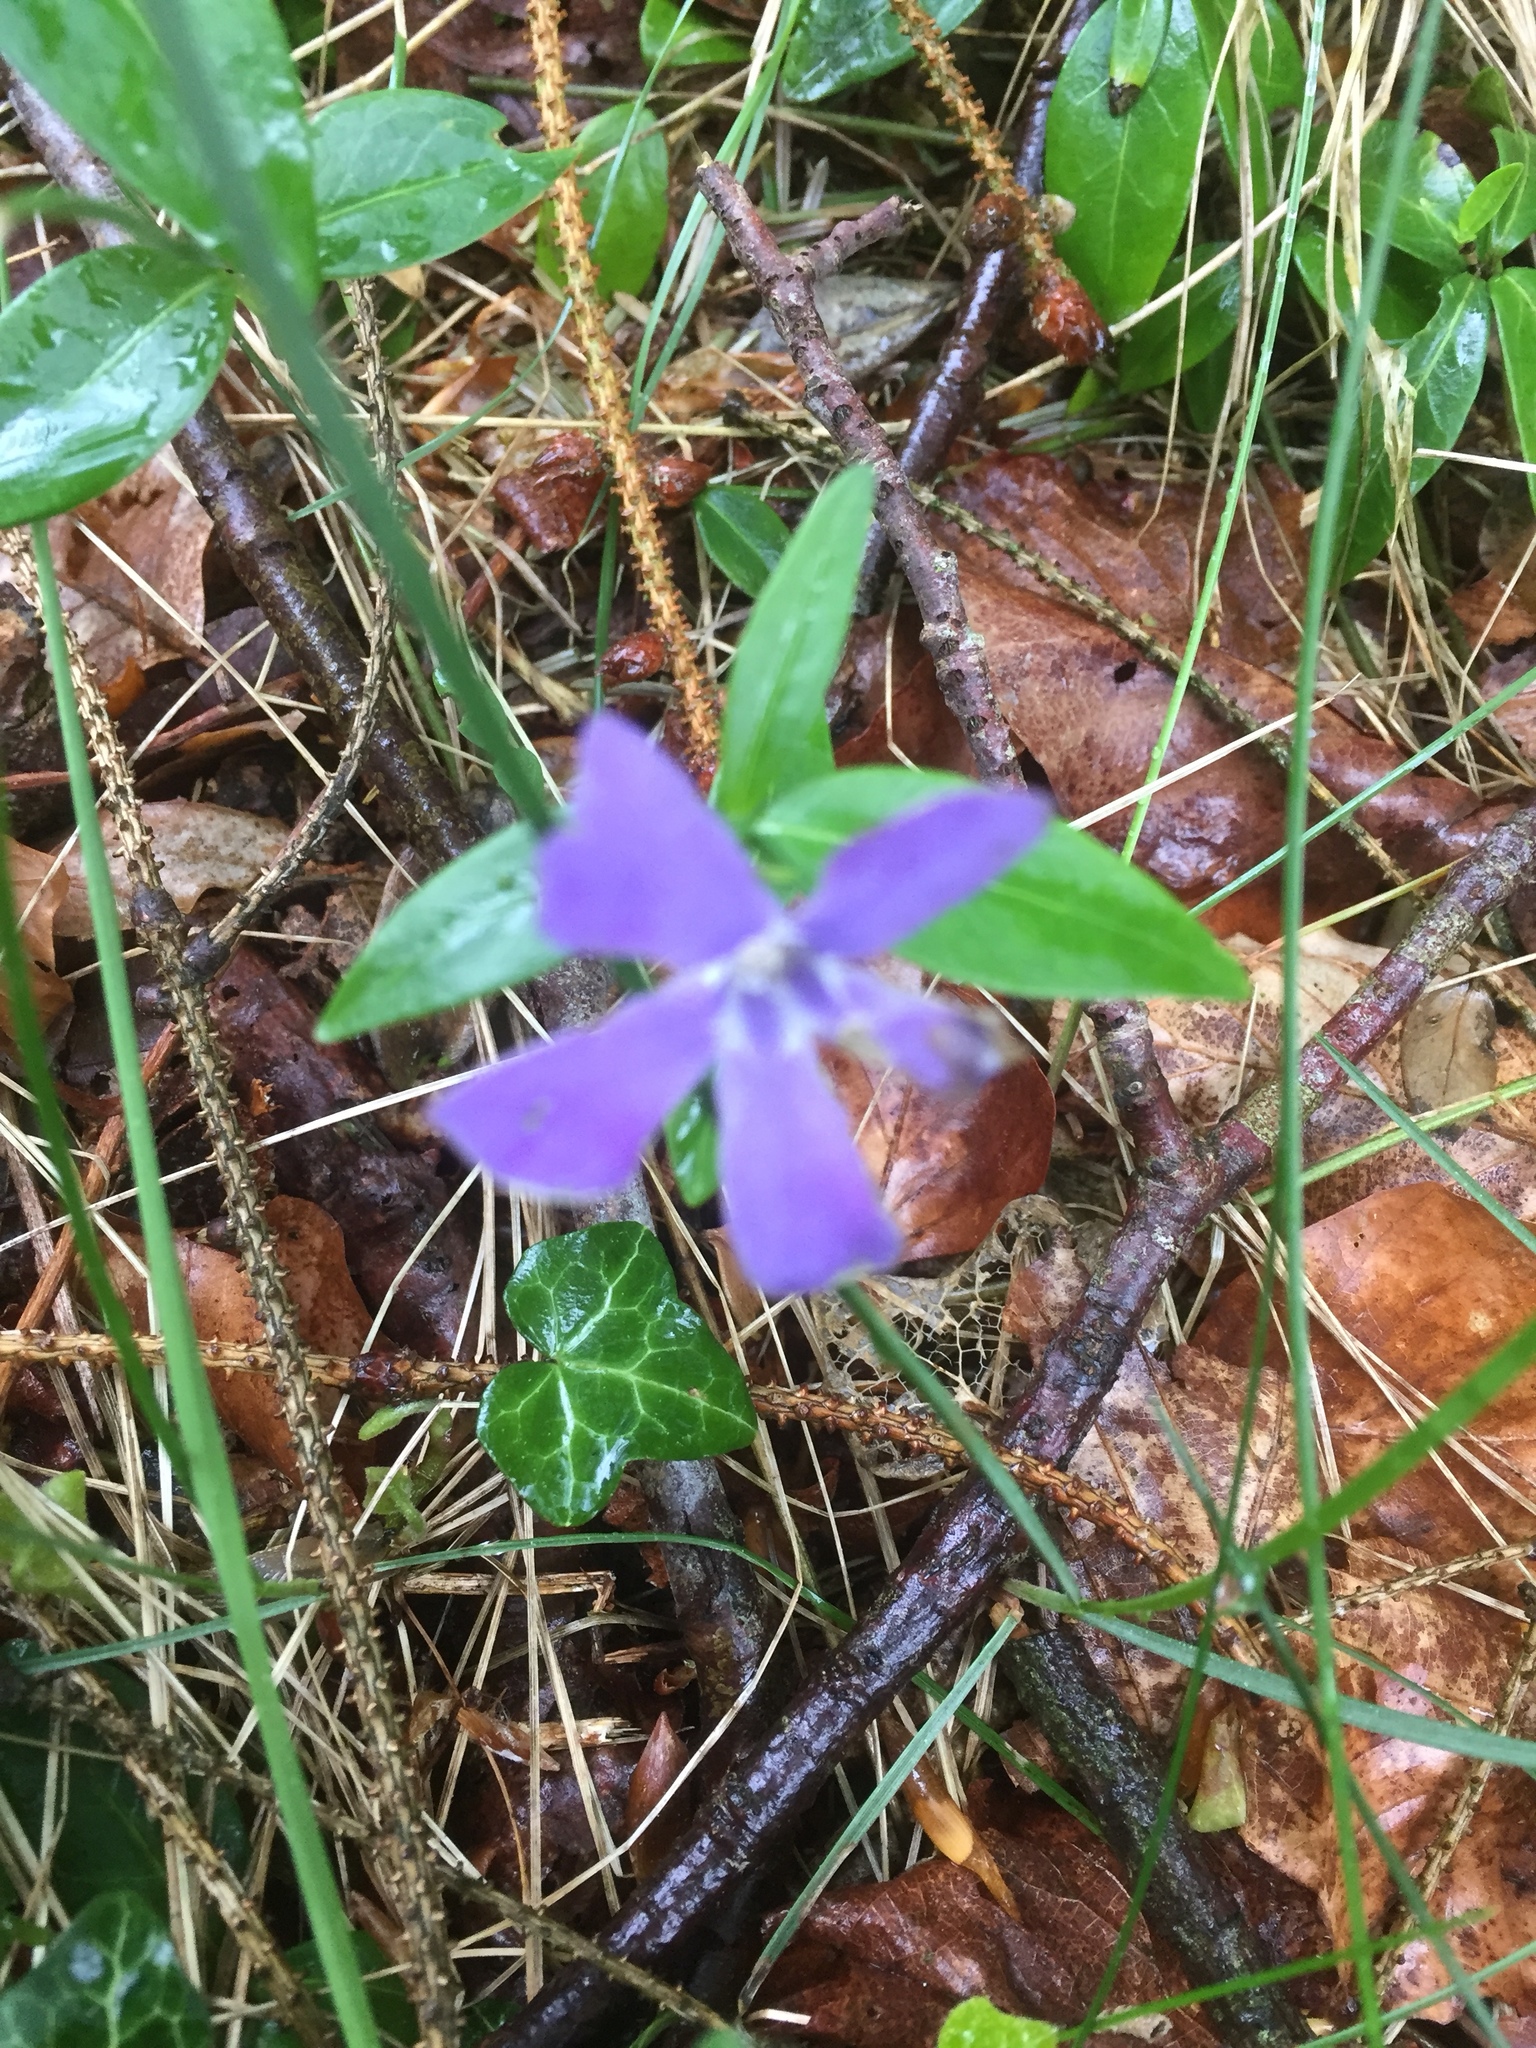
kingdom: Plantae
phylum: Tracheophyta
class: Magnoliopsida
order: Gentianales
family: Apocynaceae
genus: Vinca
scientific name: Vinca minor
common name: Lesser periwinkle
